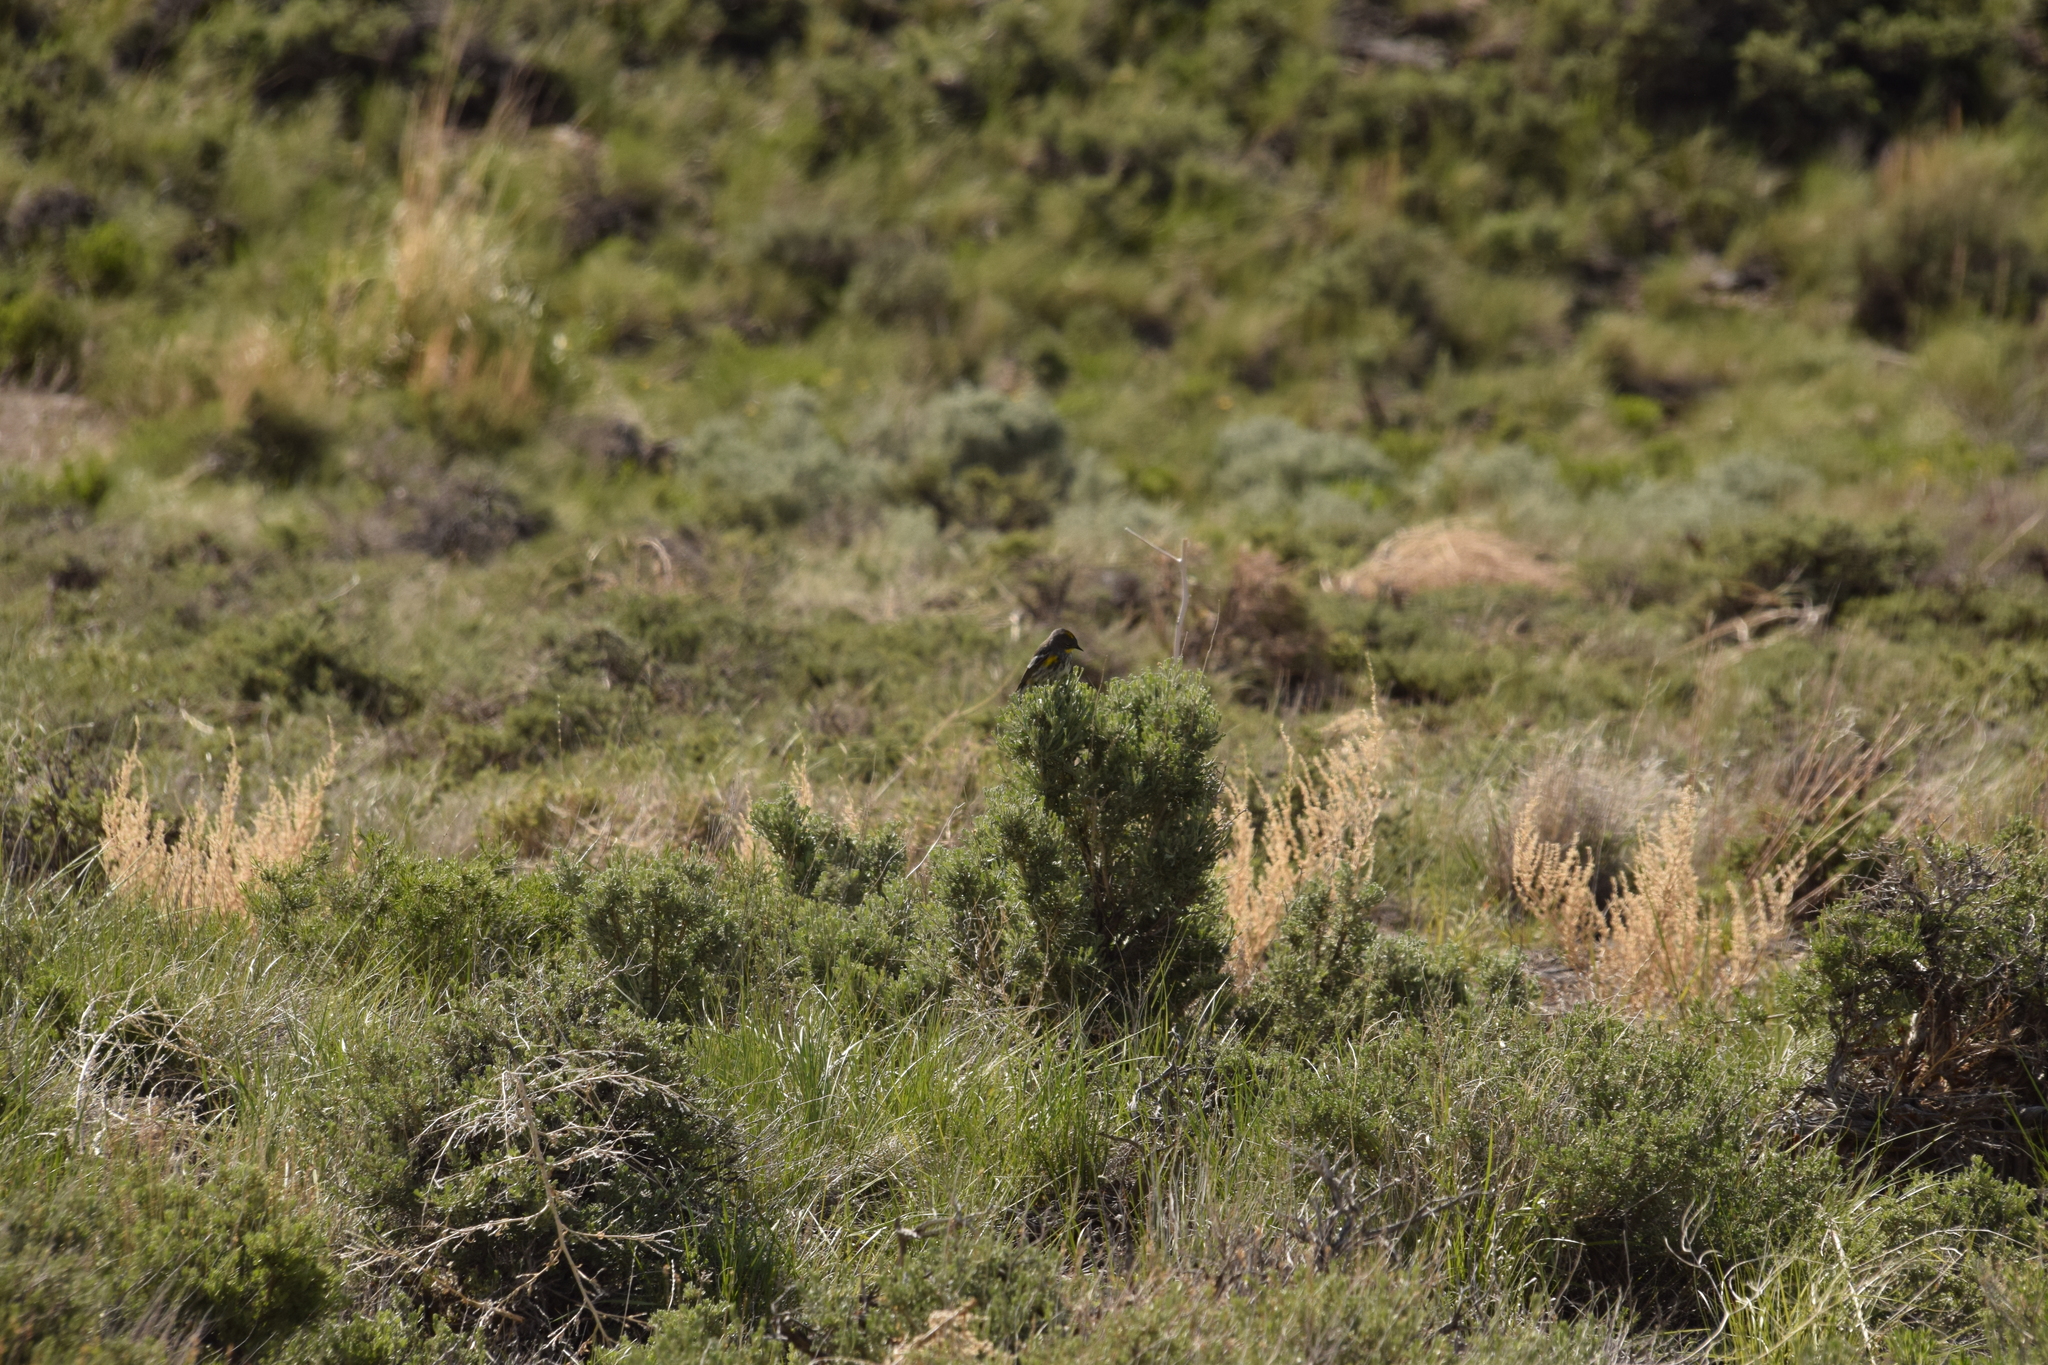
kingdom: Animalia
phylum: Chordata
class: Aves
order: Passeriformes
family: Parulidae
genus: Setophaga
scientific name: Setophaga auduboni
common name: Audubon's warbler
